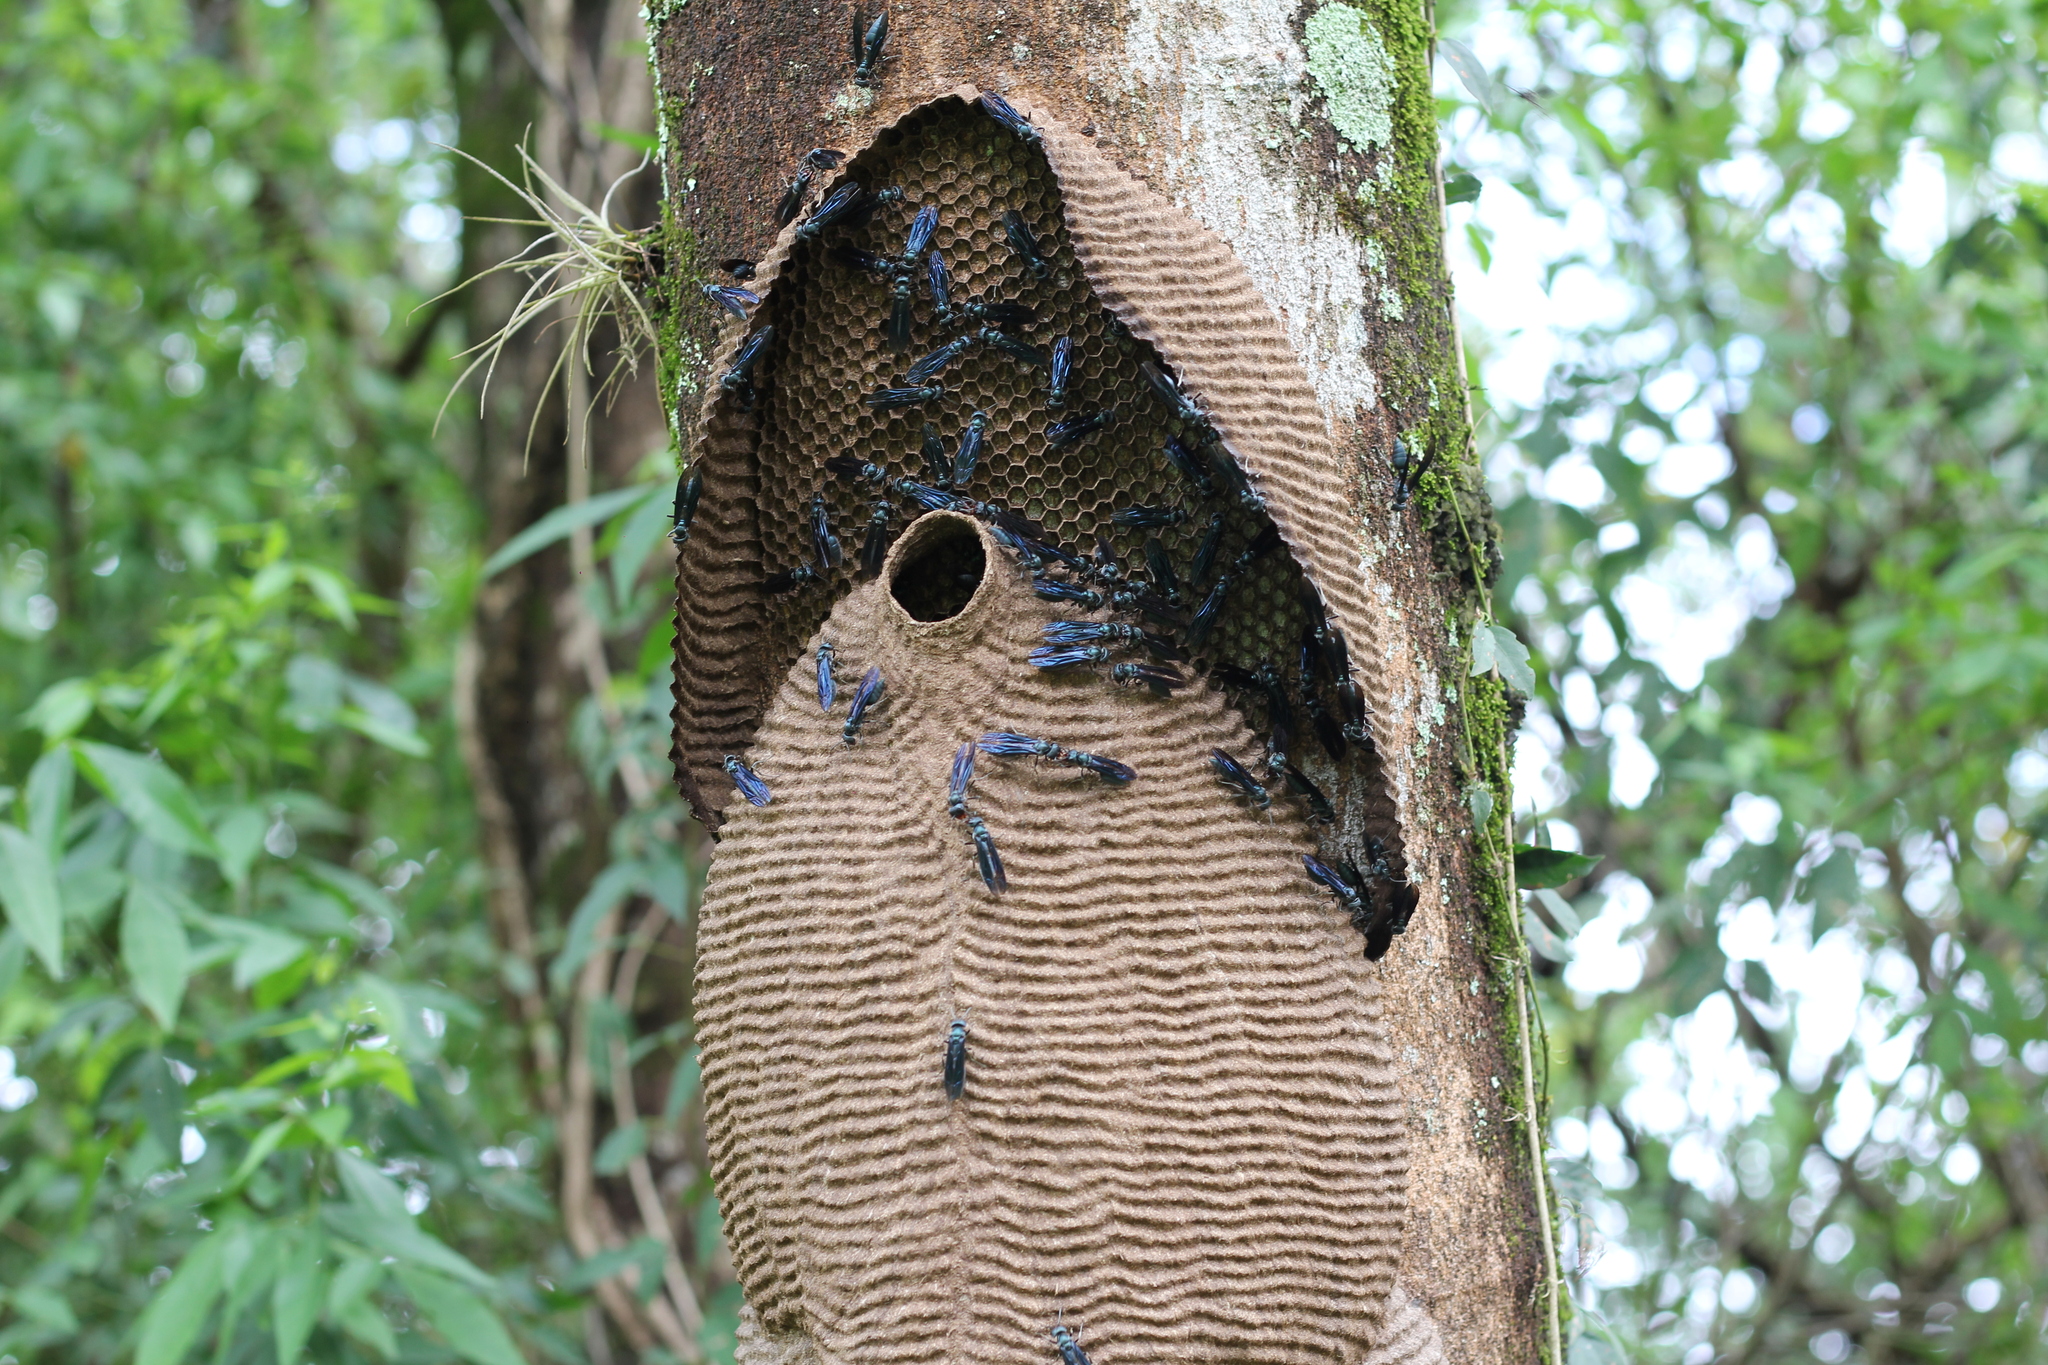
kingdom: Animalia
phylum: Arthropoda
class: Insecta
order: Hymenoptera
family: Vespidae
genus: Synoeca
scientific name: Synoeca cyanea
